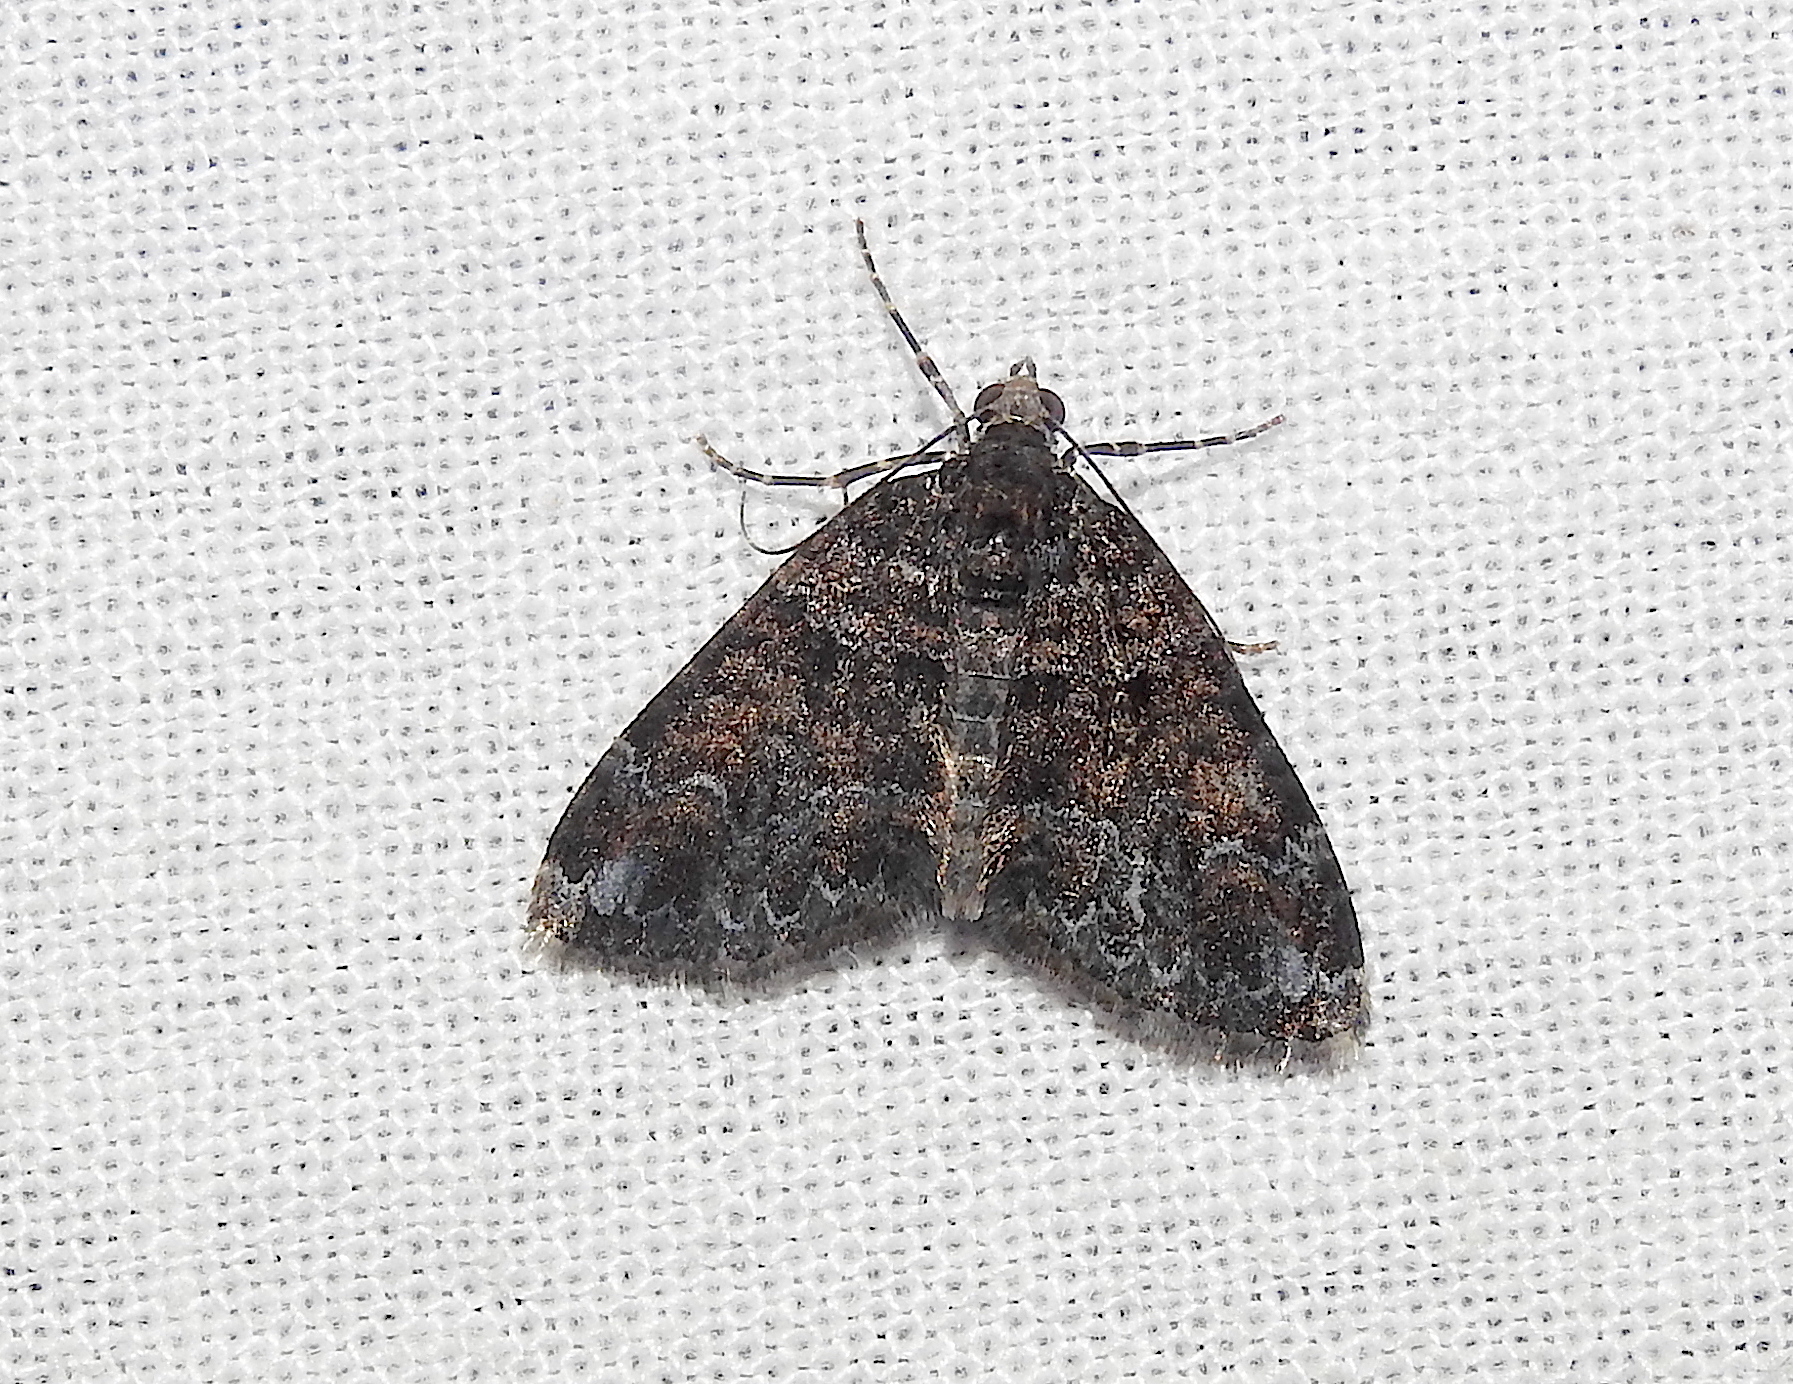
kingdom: Animalia
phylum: Arthropoda
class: Insecta
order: Lepidoptera
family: Geometridae
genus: Xanthorhoe
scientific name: Xanthorhoe fumipennis
